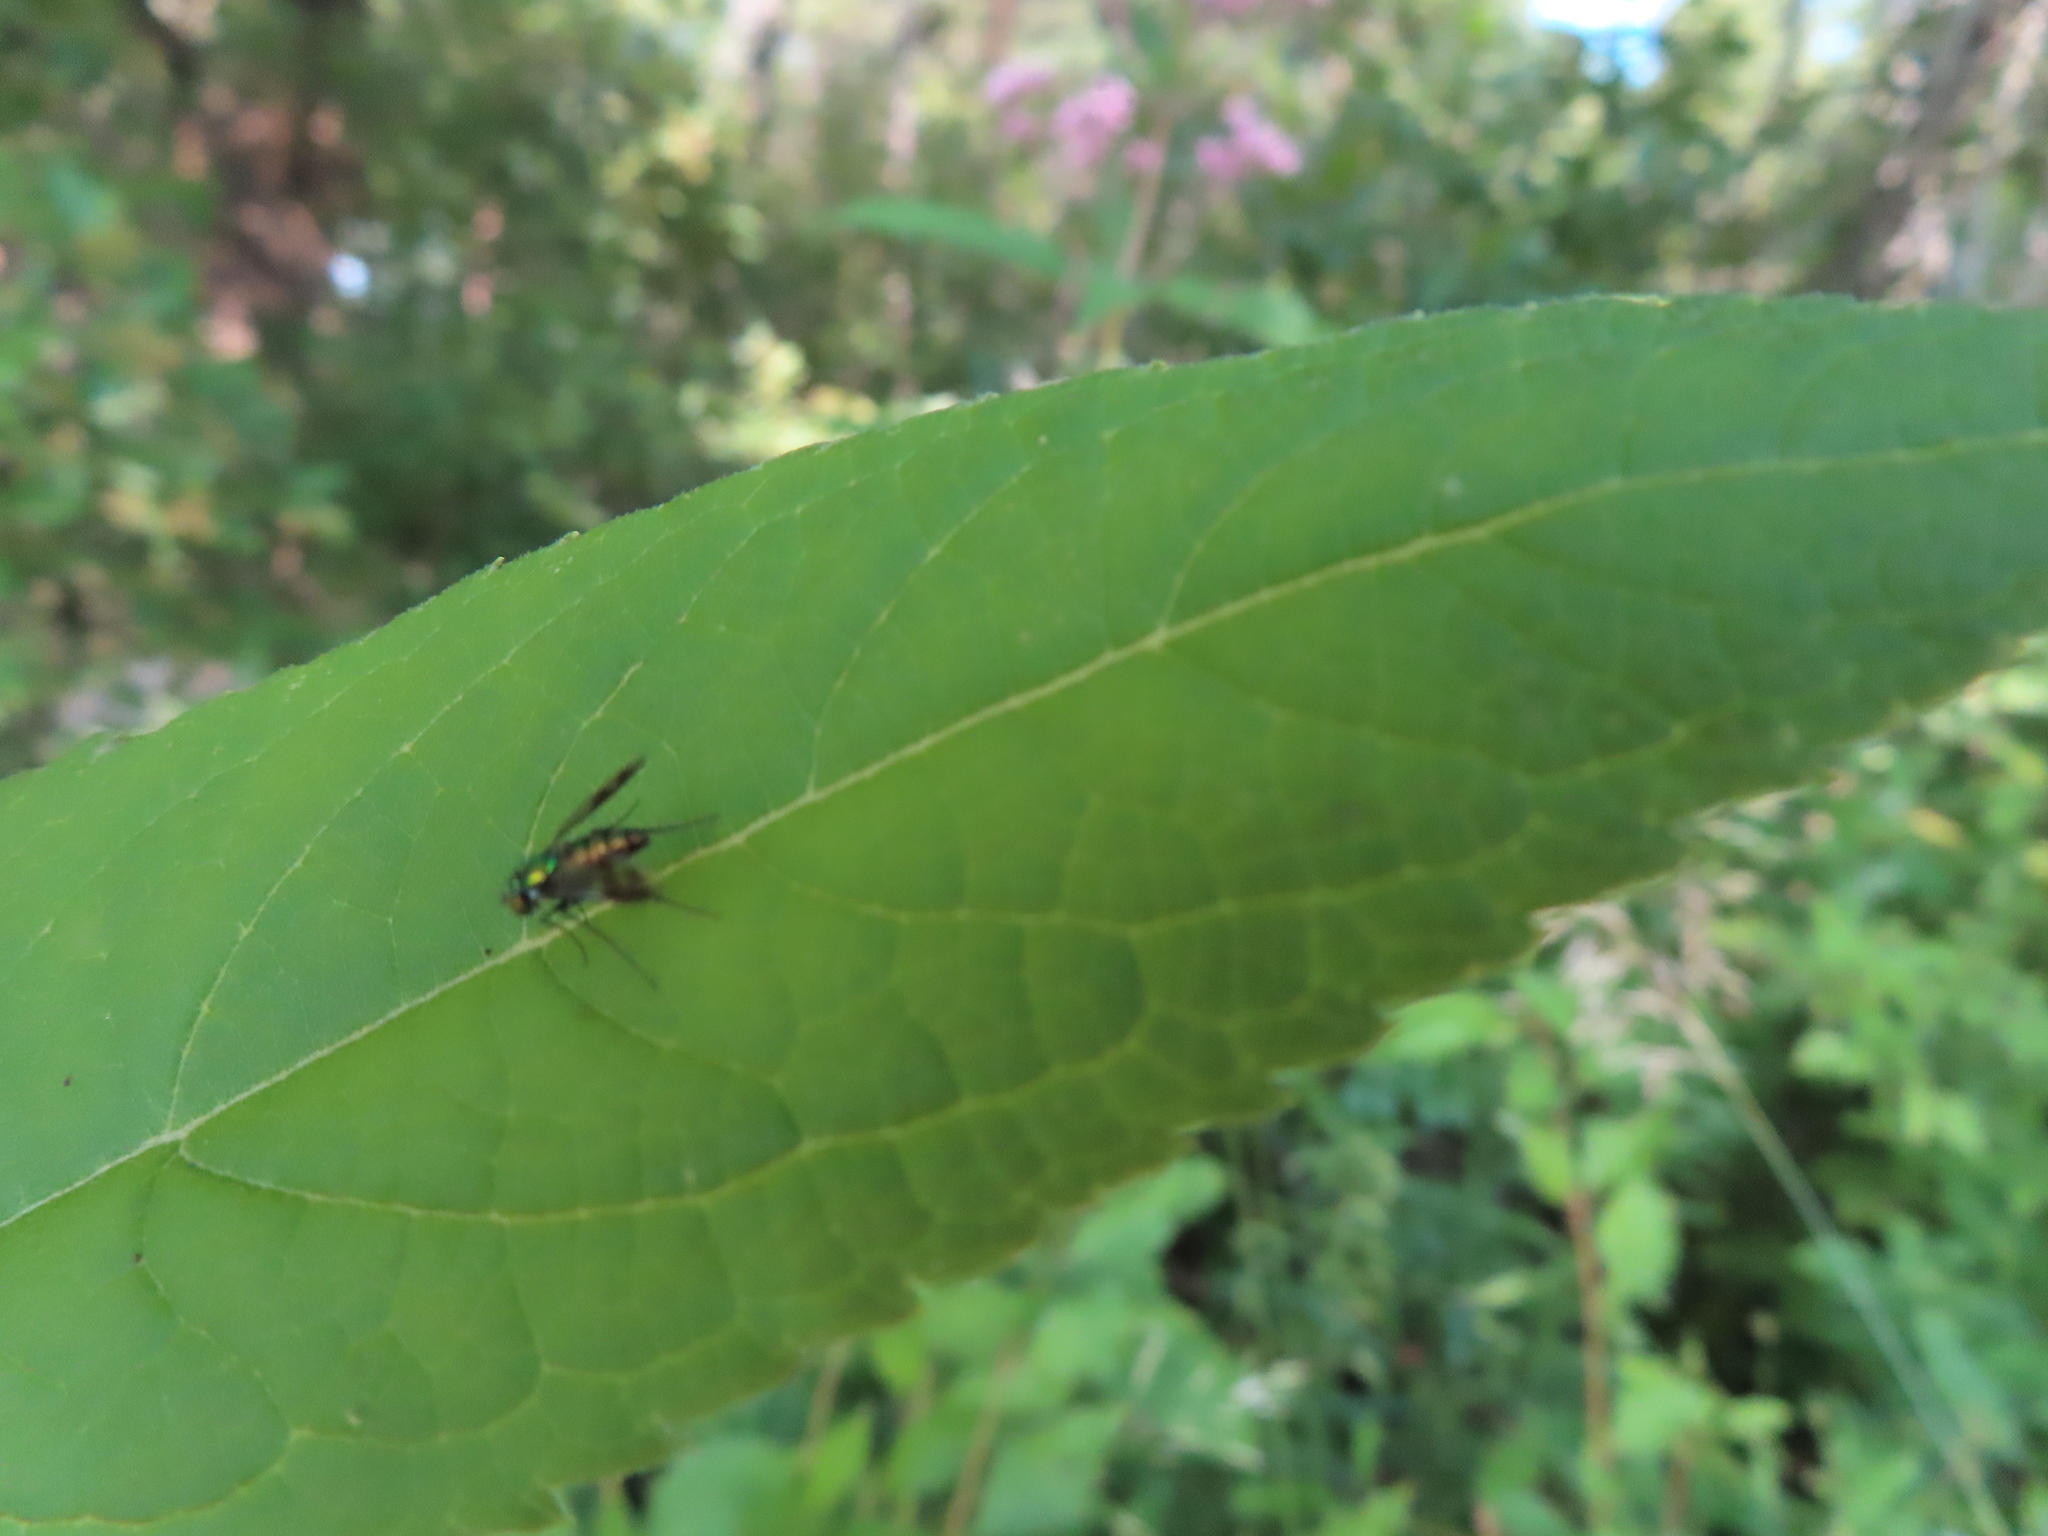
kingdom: Animalia
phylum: Arthropoda
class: Insecta
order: Diptera
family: Dolichopodidae
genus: Condylostylus
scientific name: Condylostylus patibulatus
